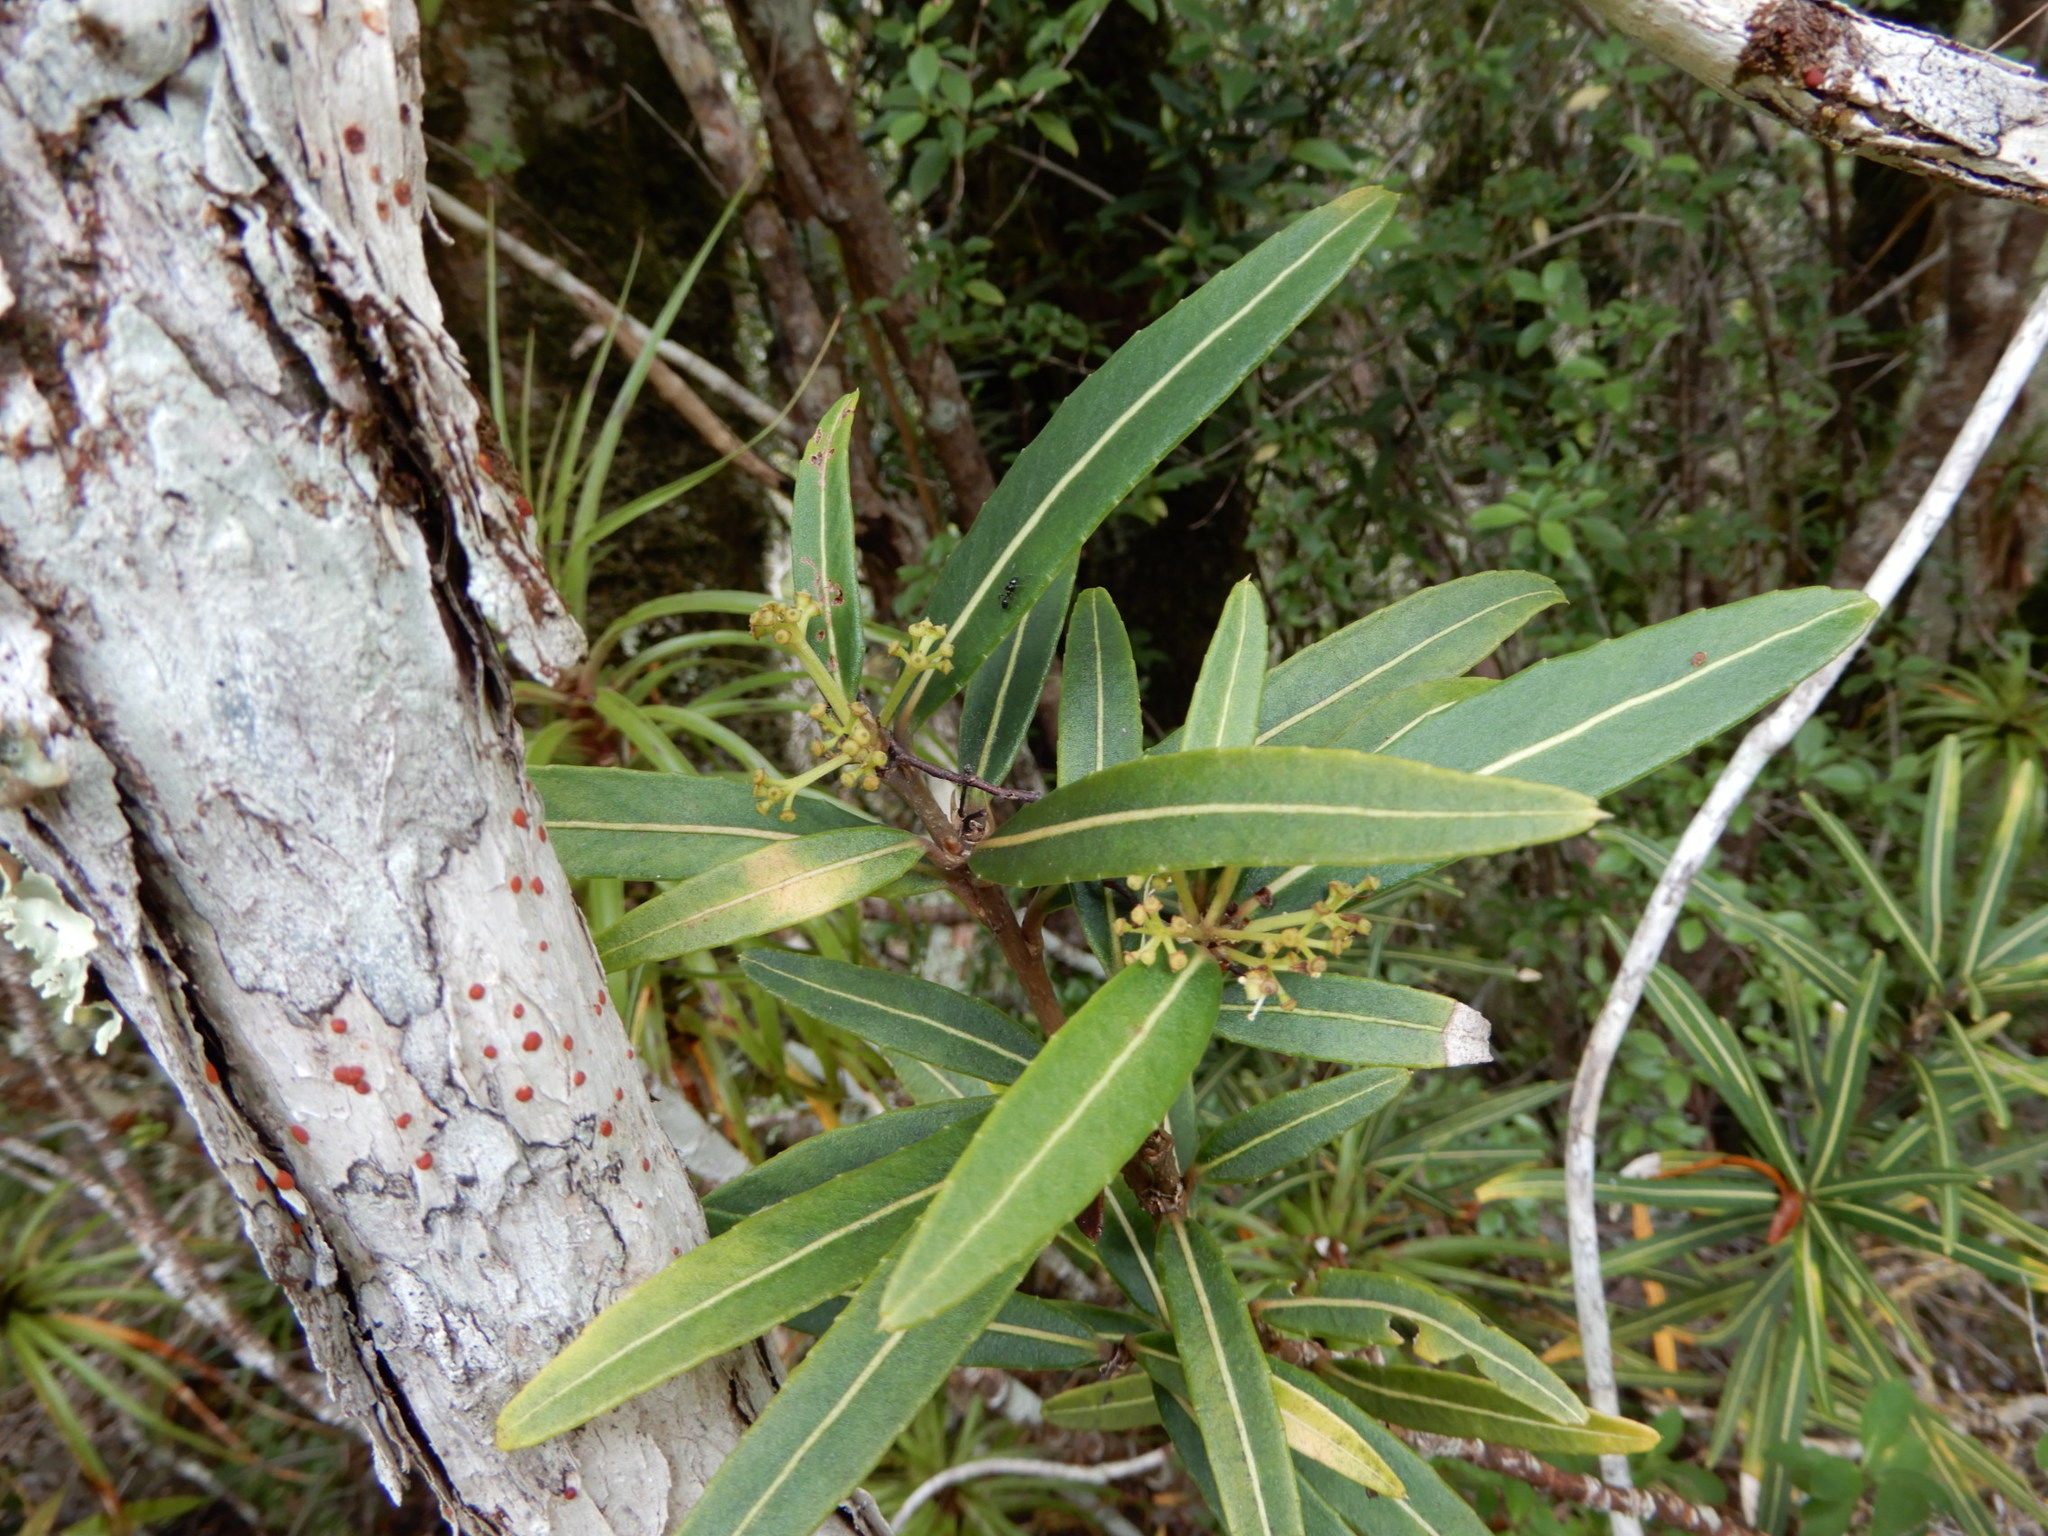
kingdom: Plantae
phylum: Tracheophyta
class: Magnoliopsida
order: Apiales
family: Araliaceae
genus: Pseudopanax
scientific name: Pseudopanax linearis
